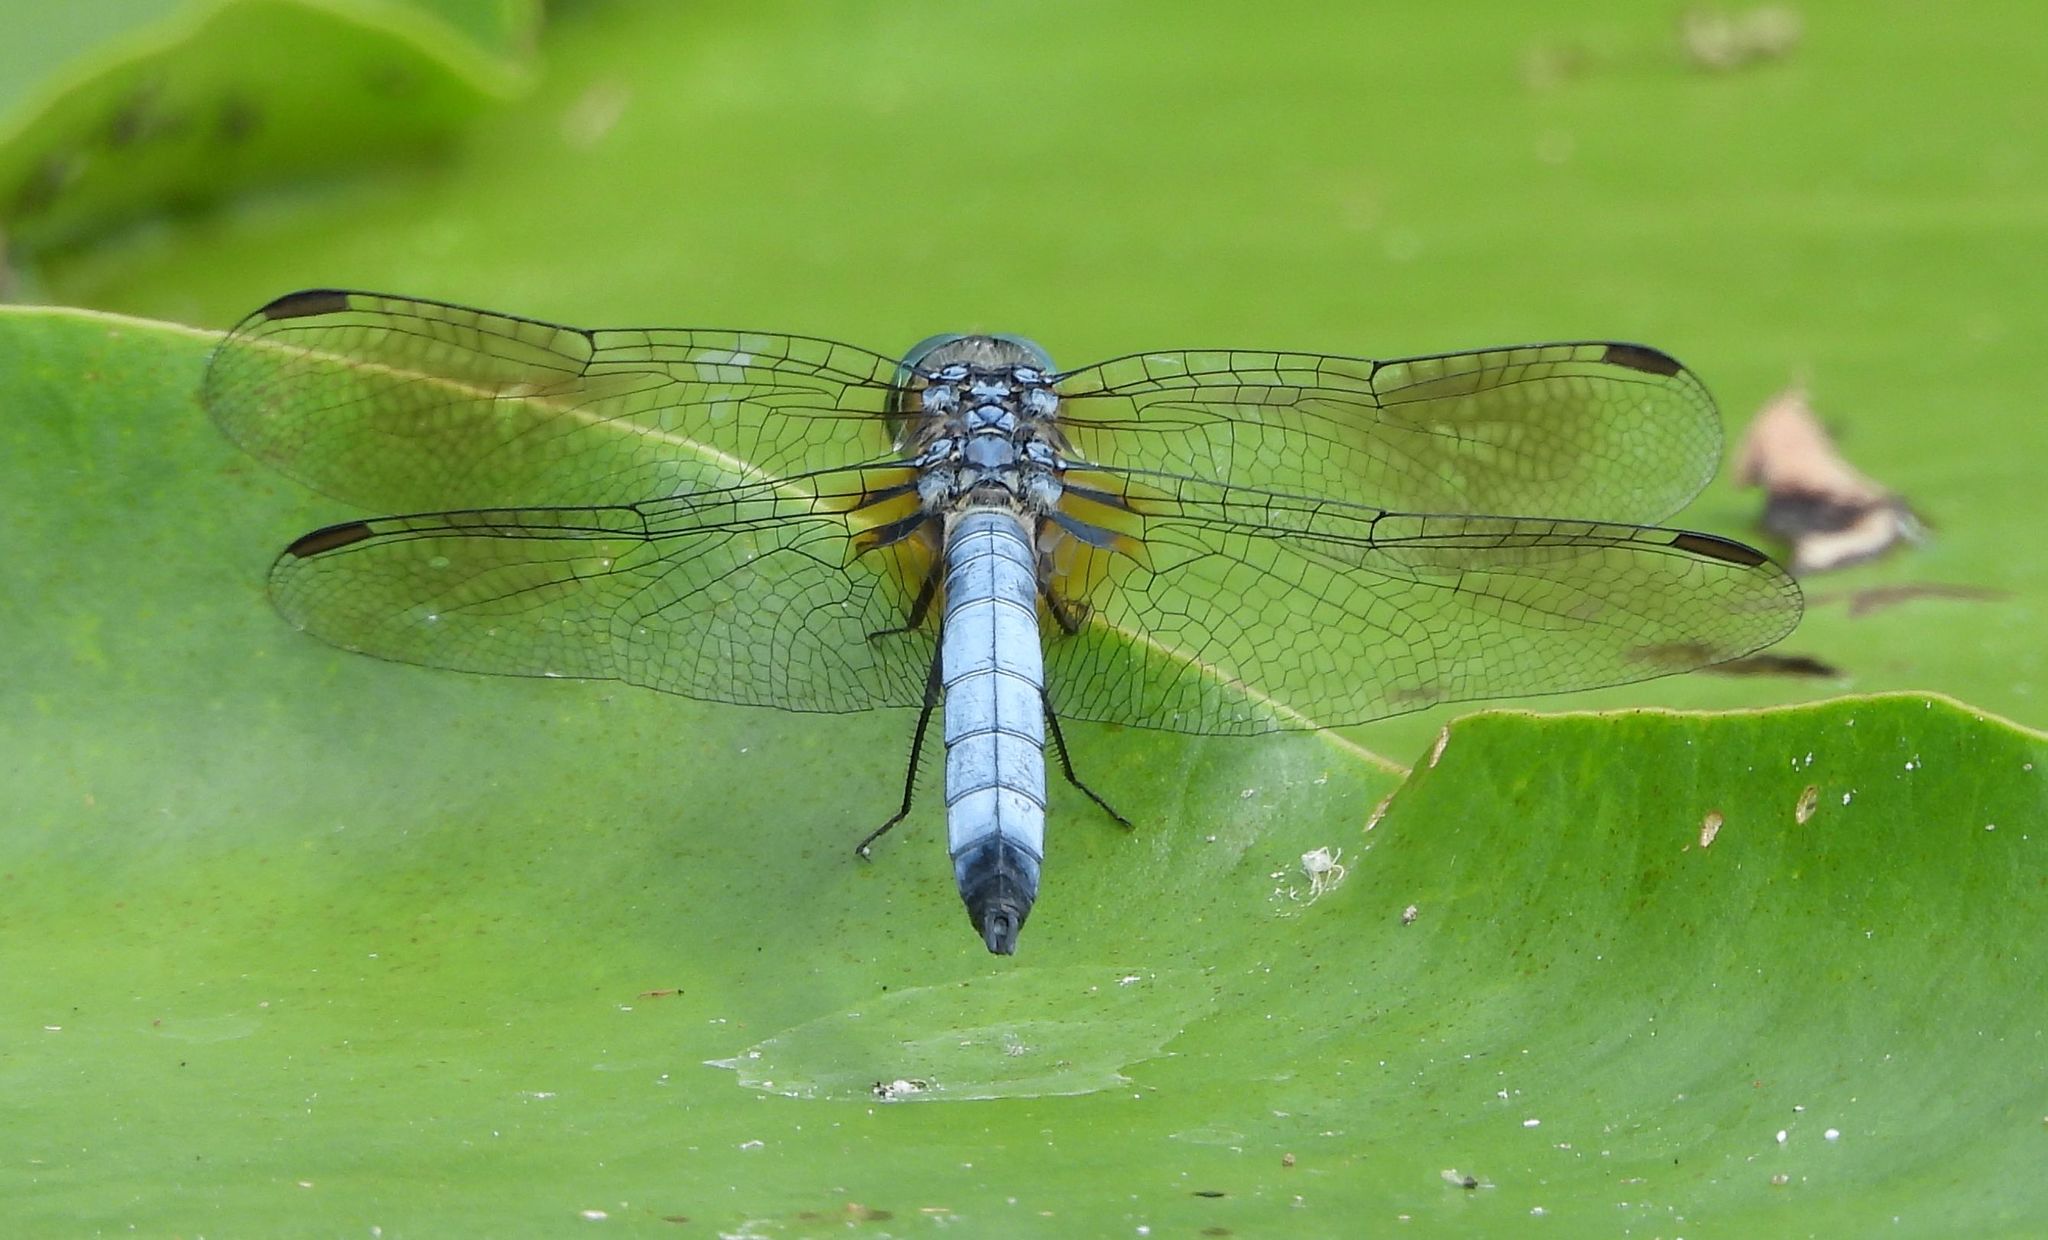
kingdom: Animalia
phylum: Arthropoda
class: Insecta
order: Odonata
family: Libellulidae
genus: Pachydiplax
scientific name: Pachydiplax longipennis
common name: Blue dasher
